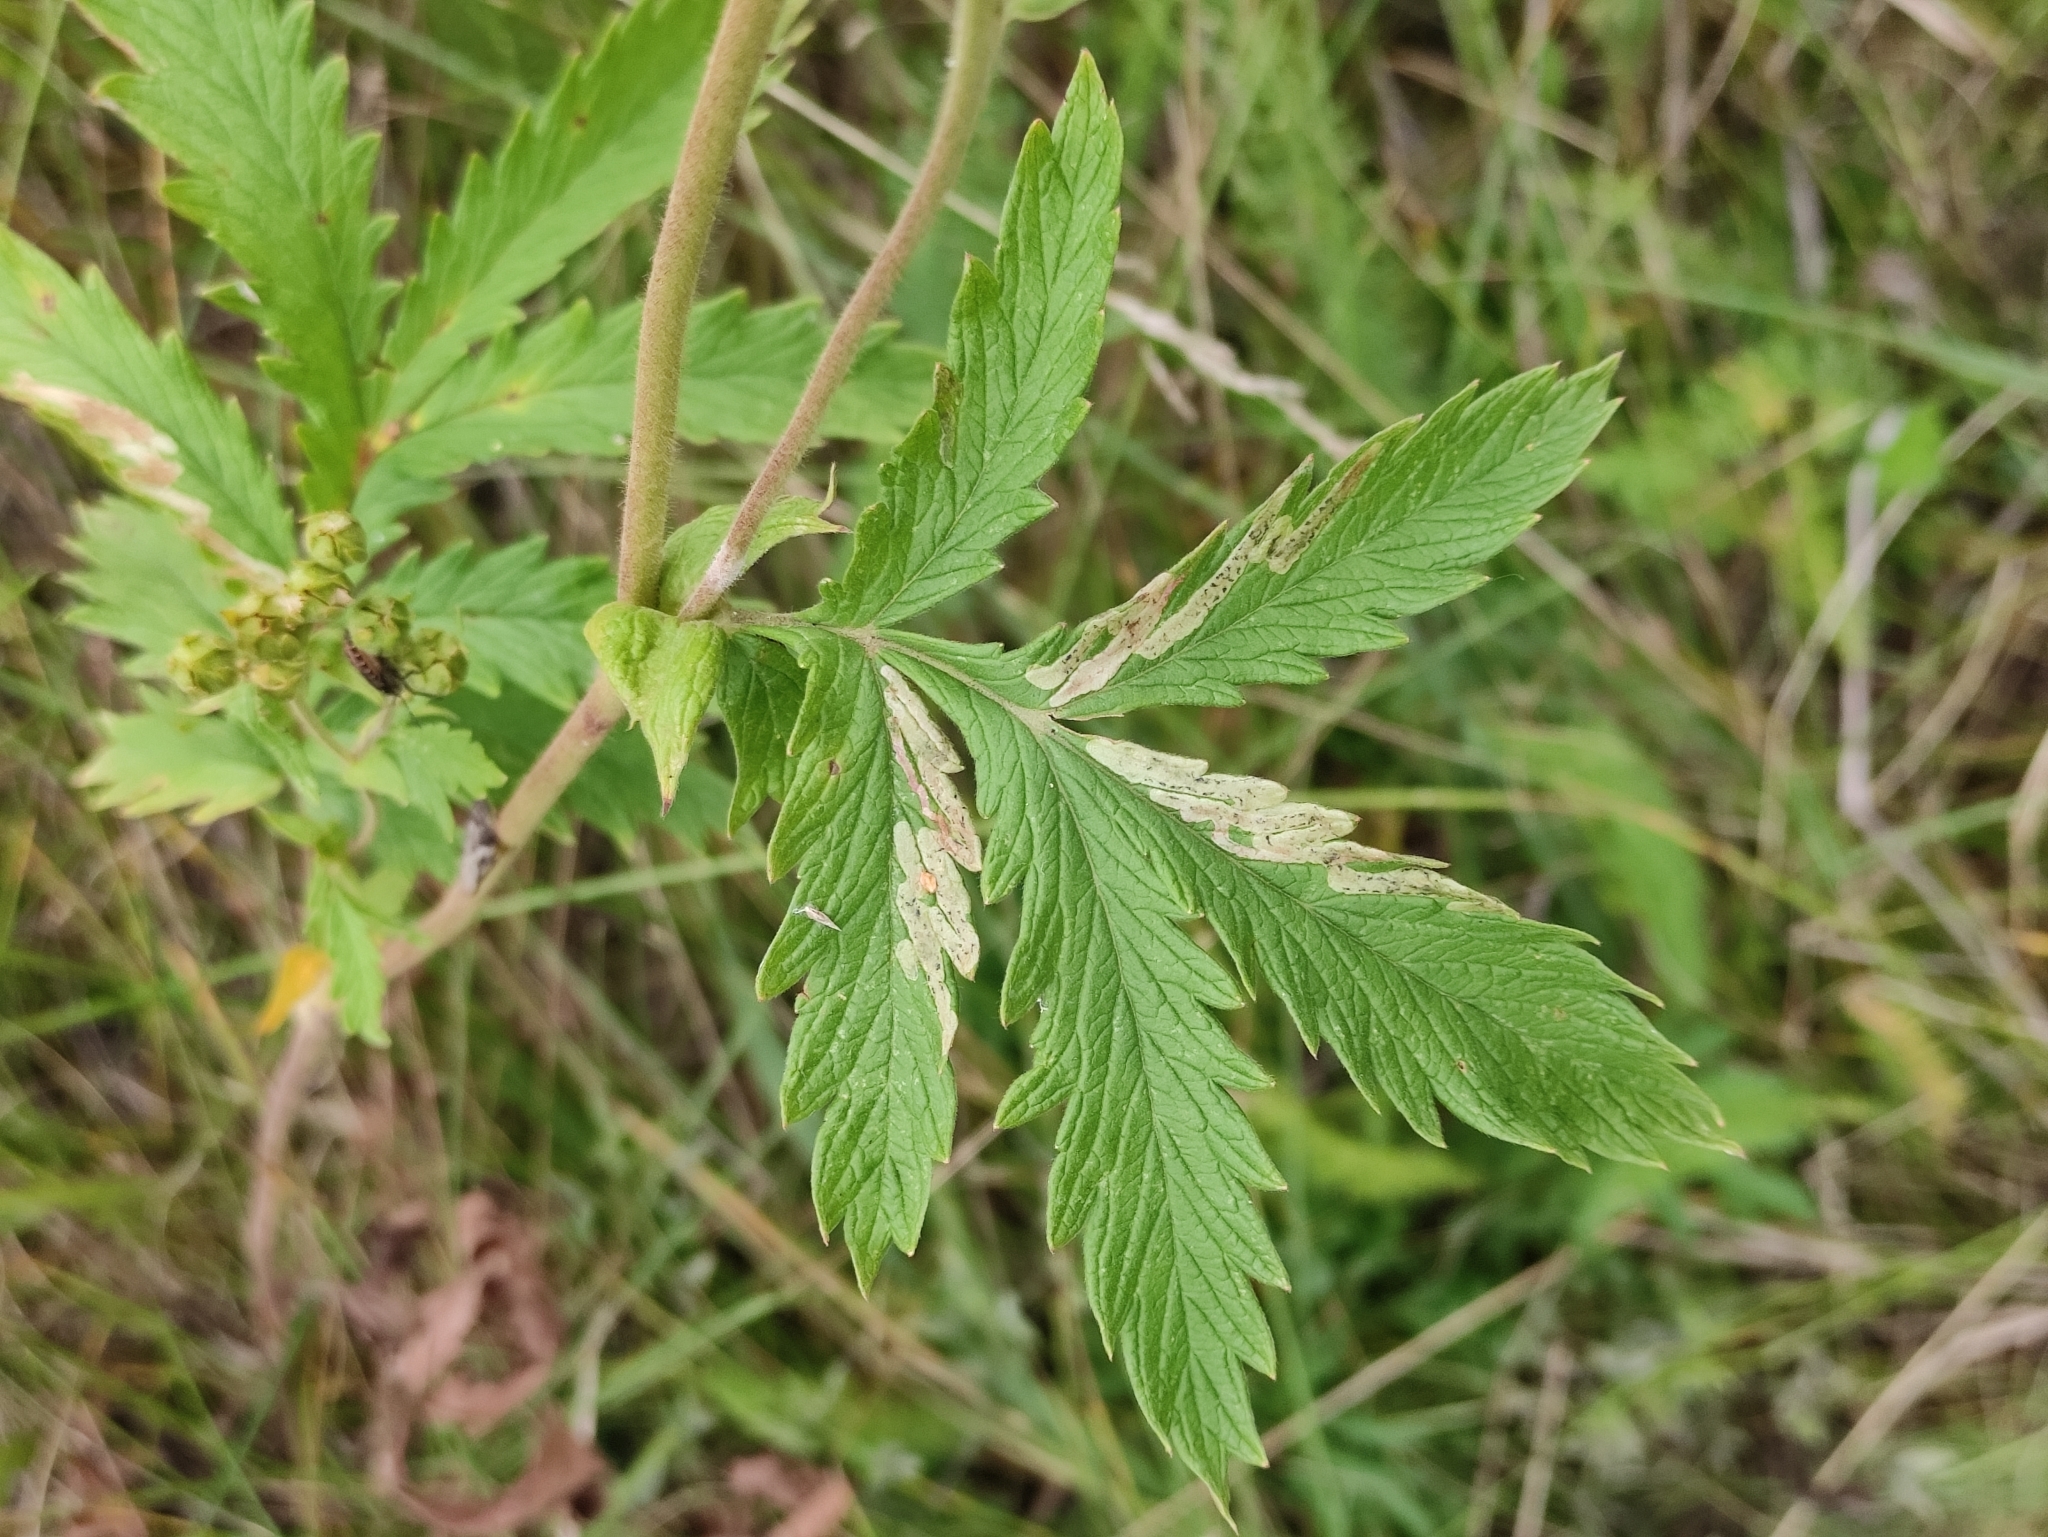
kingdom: Plantae
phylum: Tracheophyta
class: Magnoliopsida
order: Rosales
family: Rosaceae
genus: Potentilla
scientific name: Potentilla longifolia
